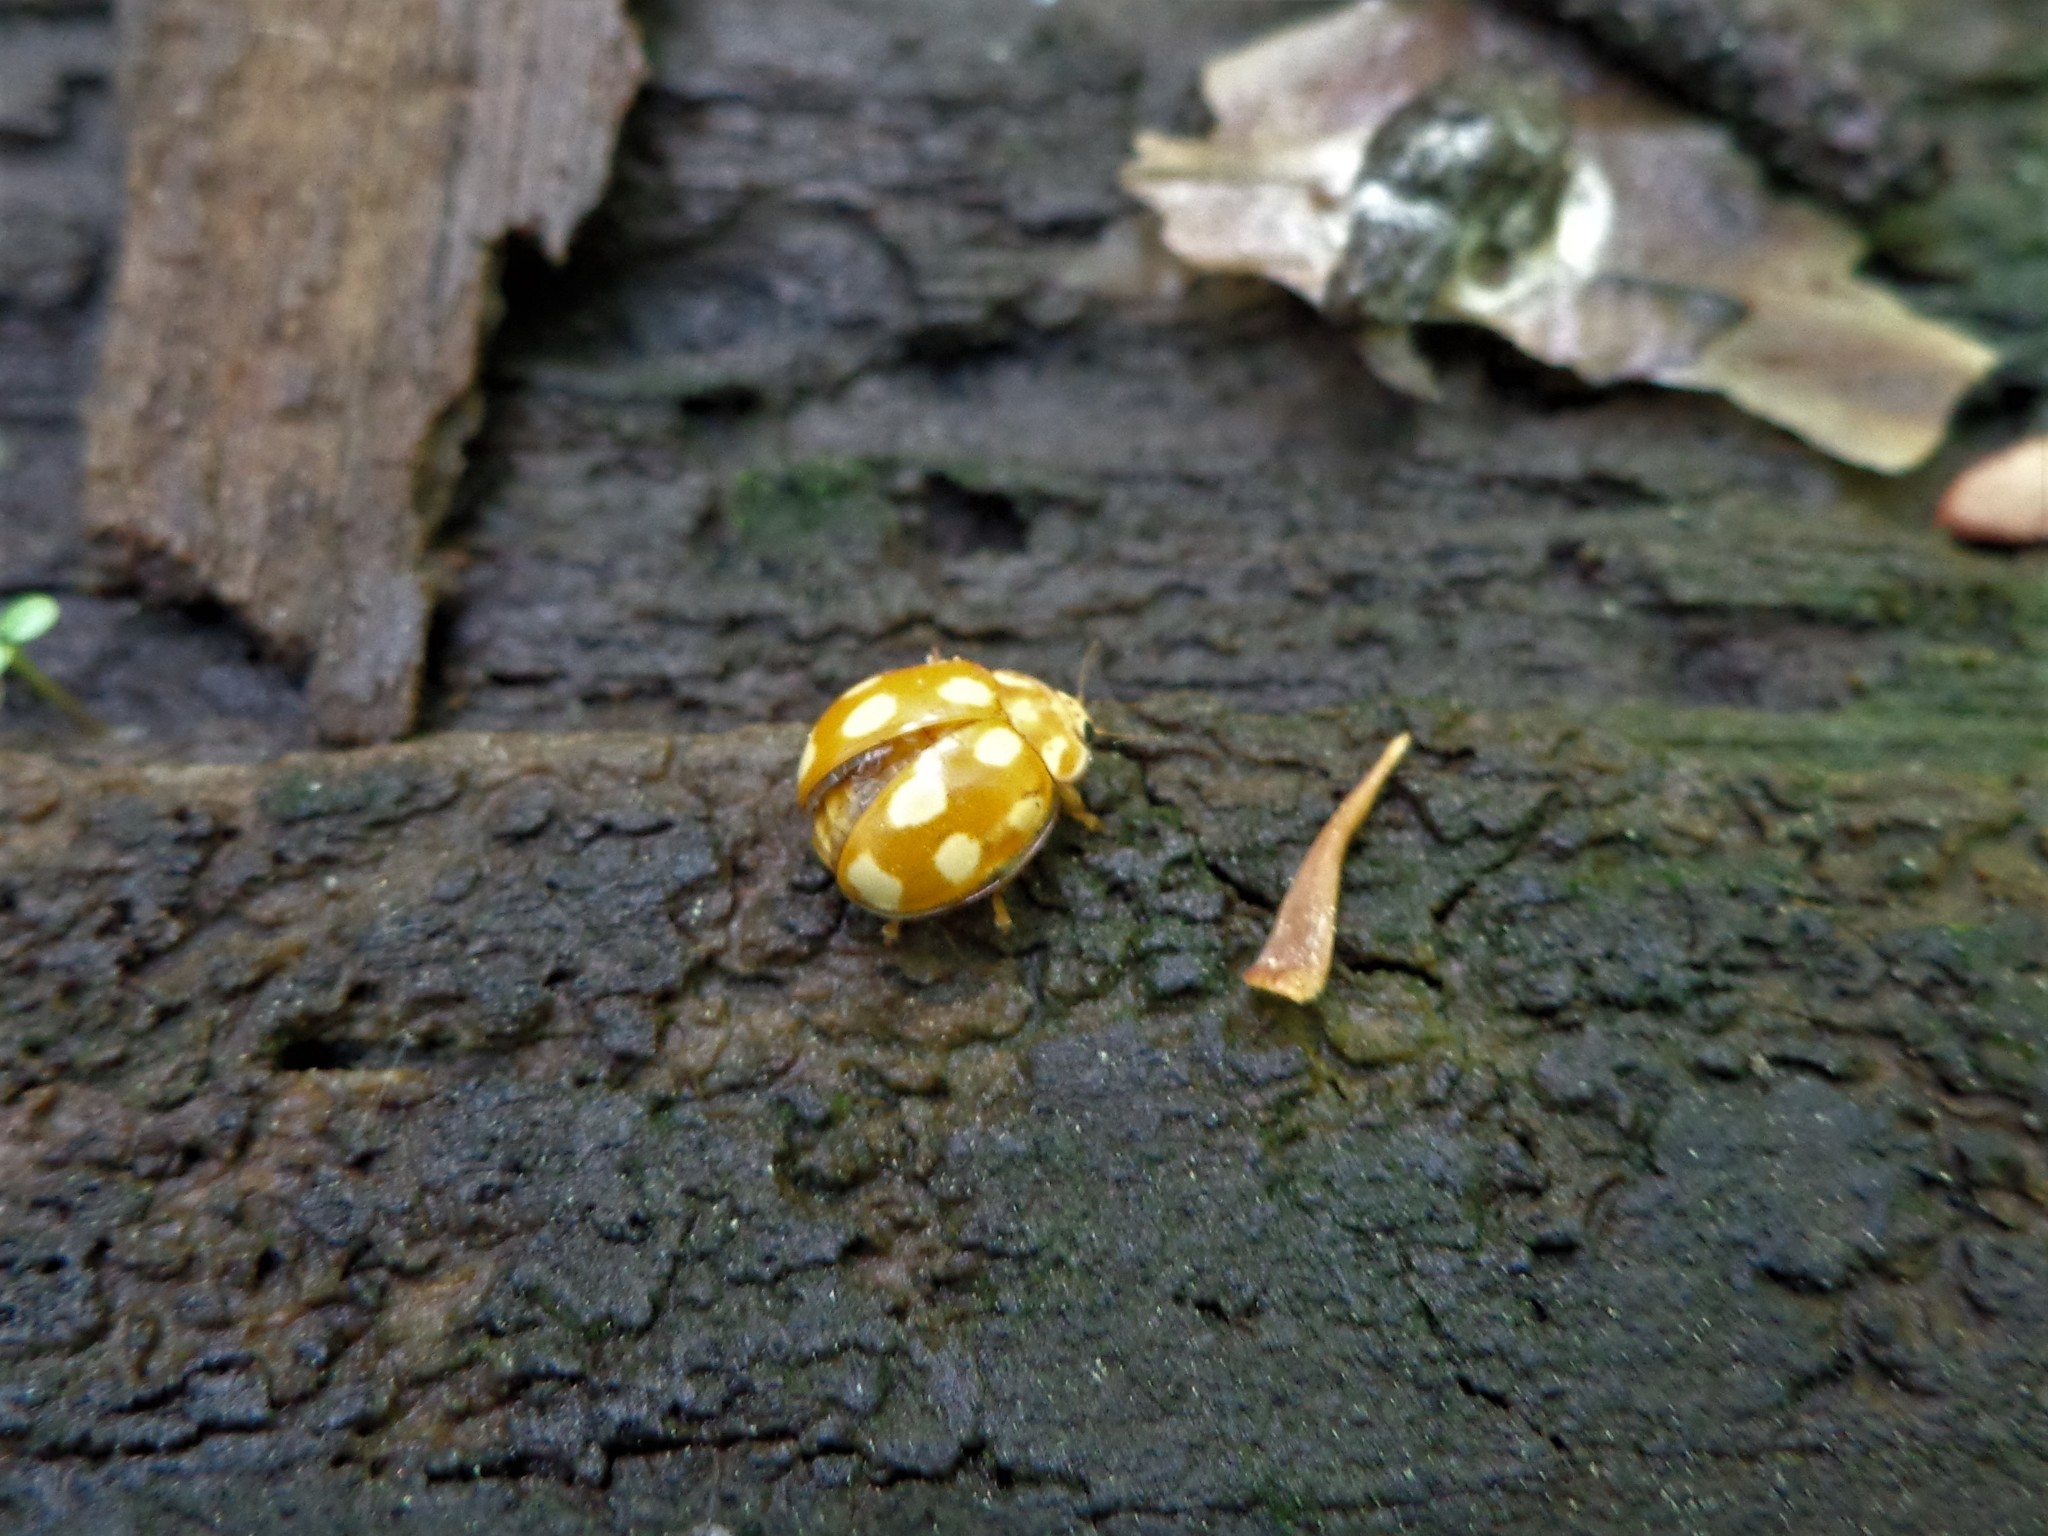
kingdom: Animalia
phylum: Arthropoda
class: Insecta
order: Coleoptera
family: Coccinellidae
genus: Calvia
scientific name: Calvia decemguttata
